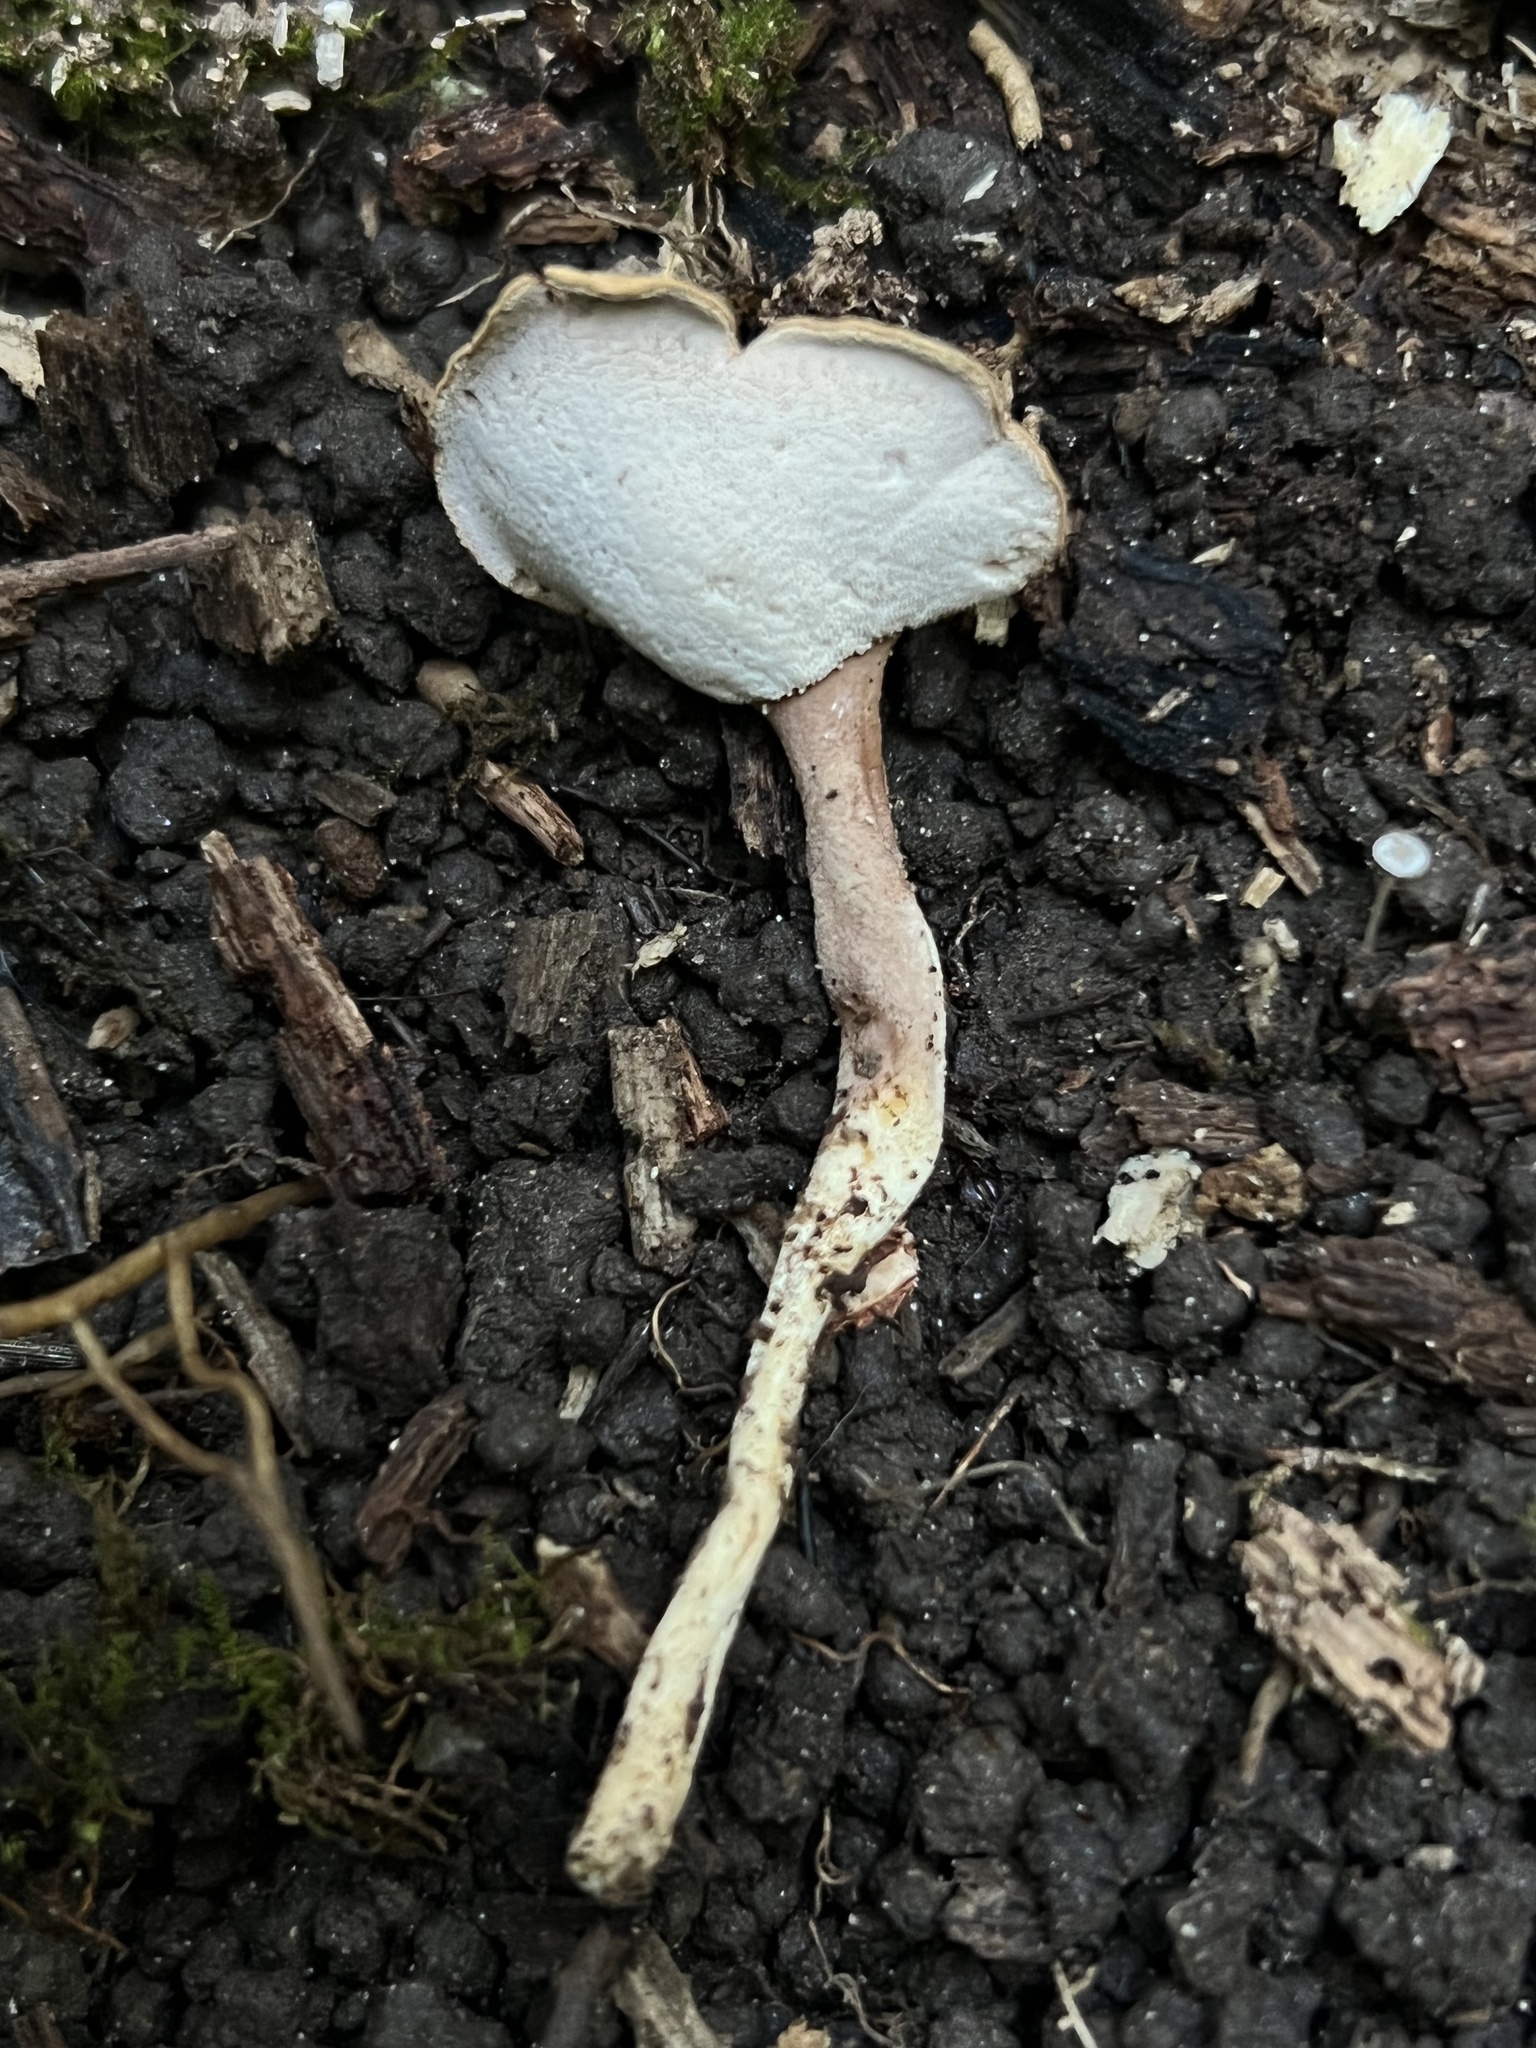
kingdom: Fungi
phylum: Basidiomycota
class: Agaricomycetes
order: Agaricales
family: Fistulinaceae
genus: Pseudofistulina
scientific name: Pseudofistulina radicata
